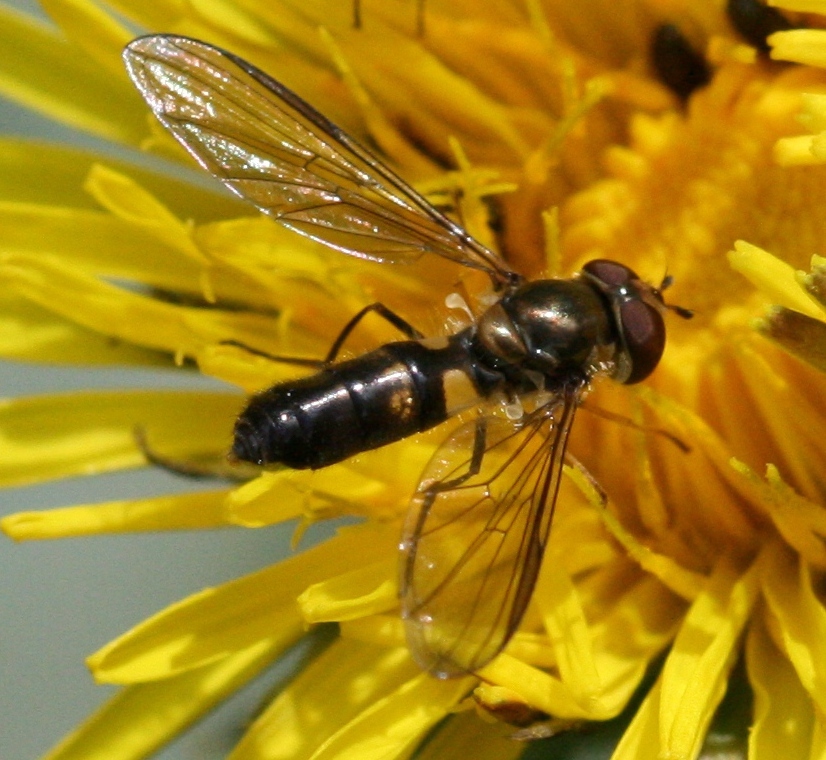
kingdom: Animalia
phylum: Arthropoda
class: Insecta
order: Diptera
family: Syrphidae
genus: Meliscaeva
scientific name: Meliscaeva cinctella
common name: American thintail fly
